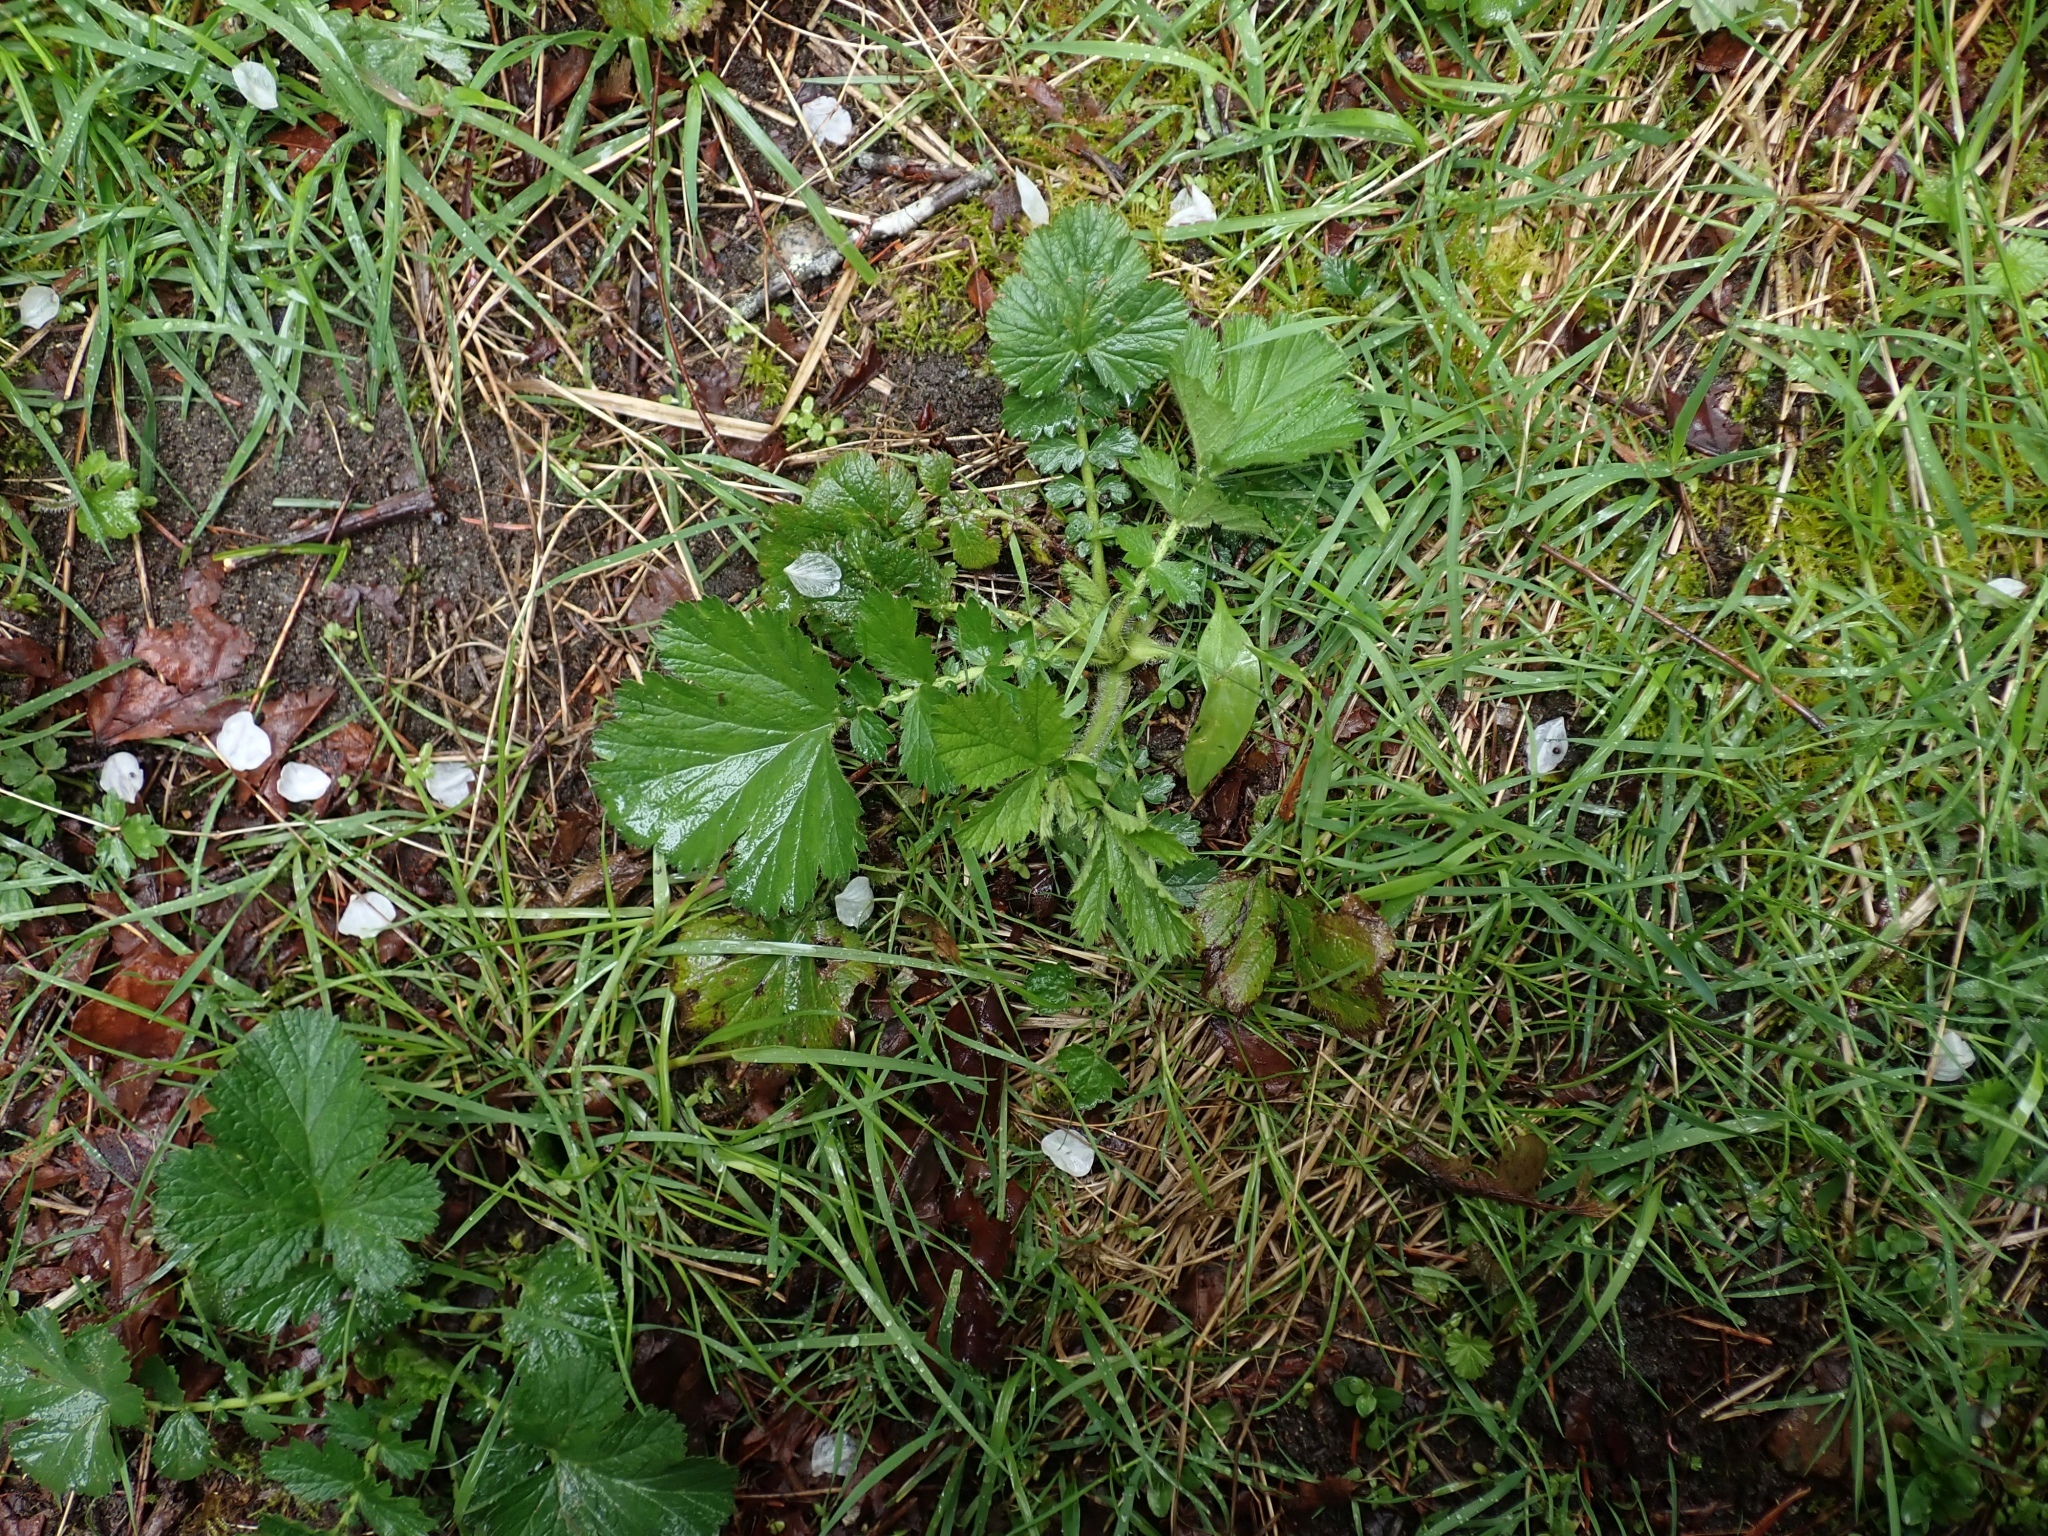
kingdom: Plantae
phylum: Tracheophyta
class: Magnoliopsida
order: Rosales
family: Rosaceae
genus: Geum
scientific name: Geum macrophyllum
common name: Large-leaved avens
